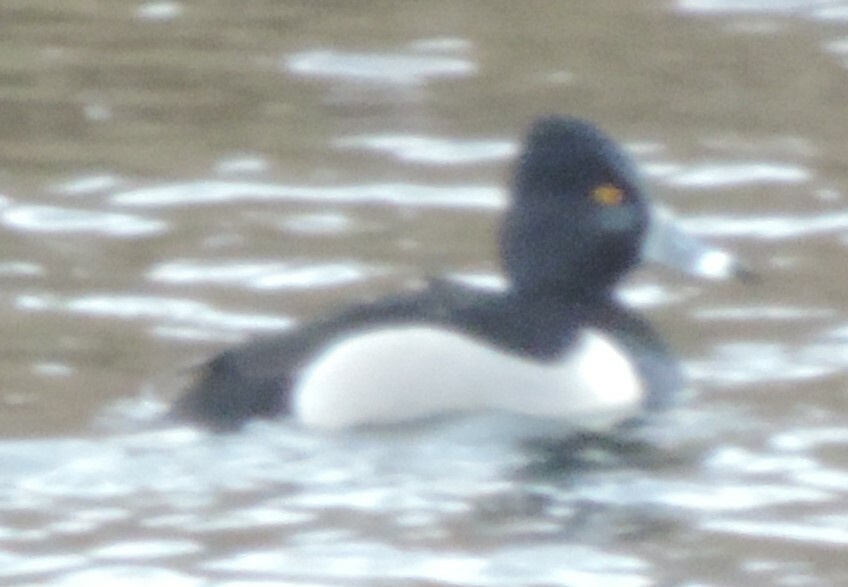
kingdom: Animalia
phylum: Chordata
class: Aves
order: Anseriformes
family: Anatidae
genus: Aythya
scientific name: Aythya collaris
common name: Ring-necked duck
